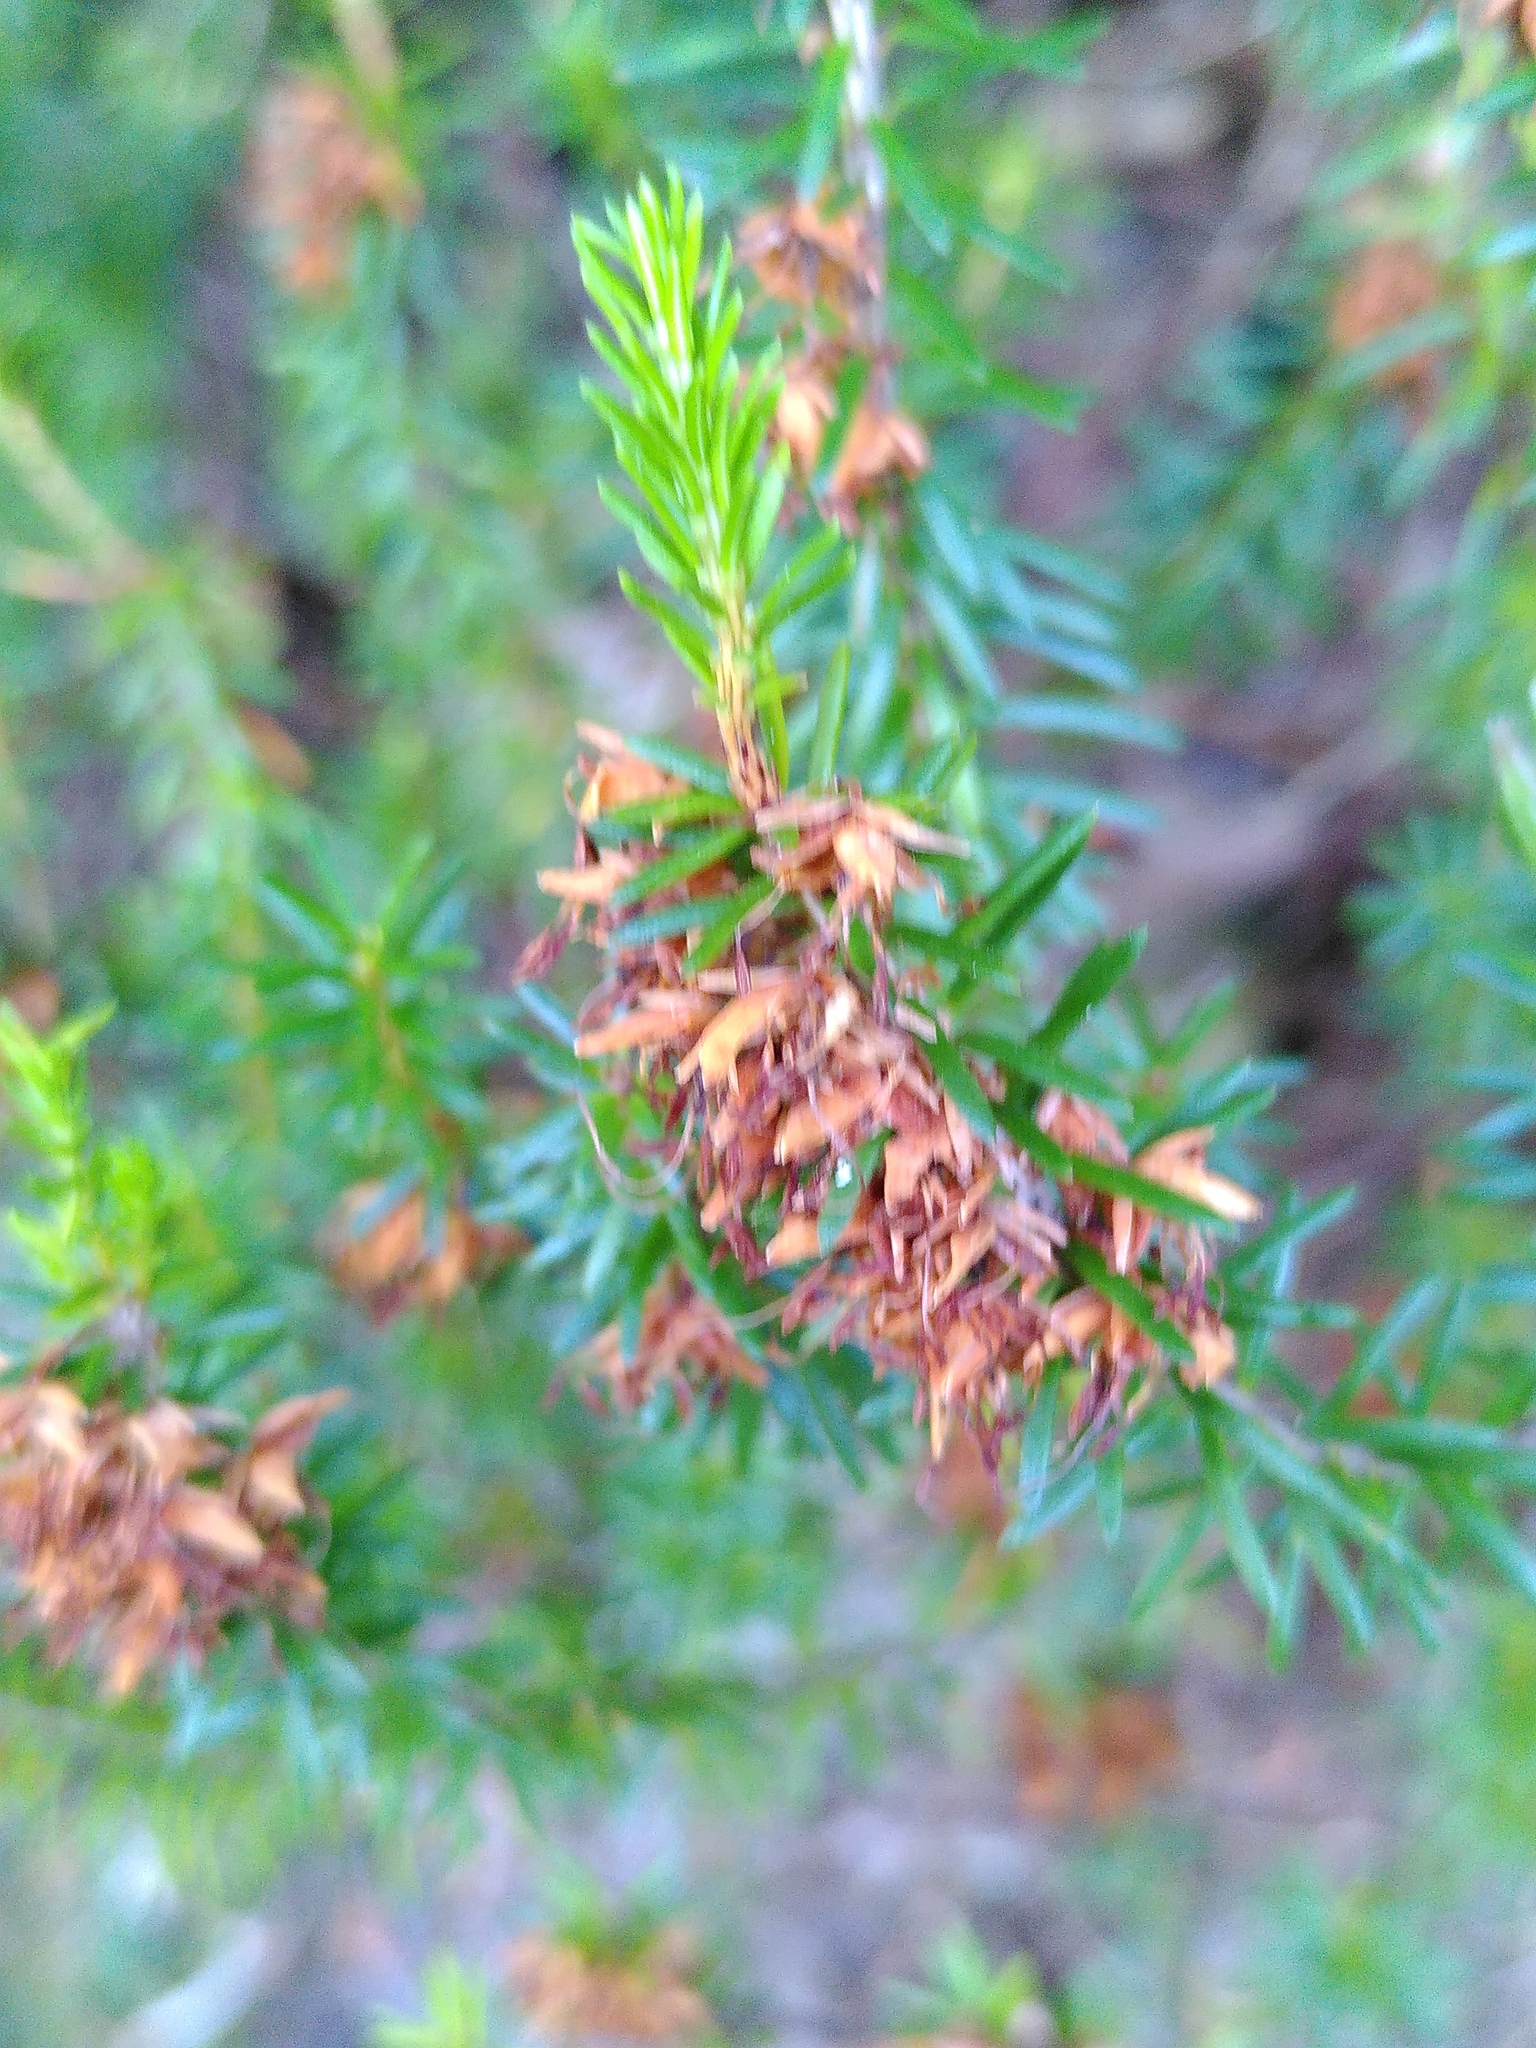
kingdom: Plantae
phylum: Tracheophyta
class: Magnoliopsida
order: Ericales
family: Ericaceae
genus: Erica
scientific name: Erica carnea
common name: Winter heath
